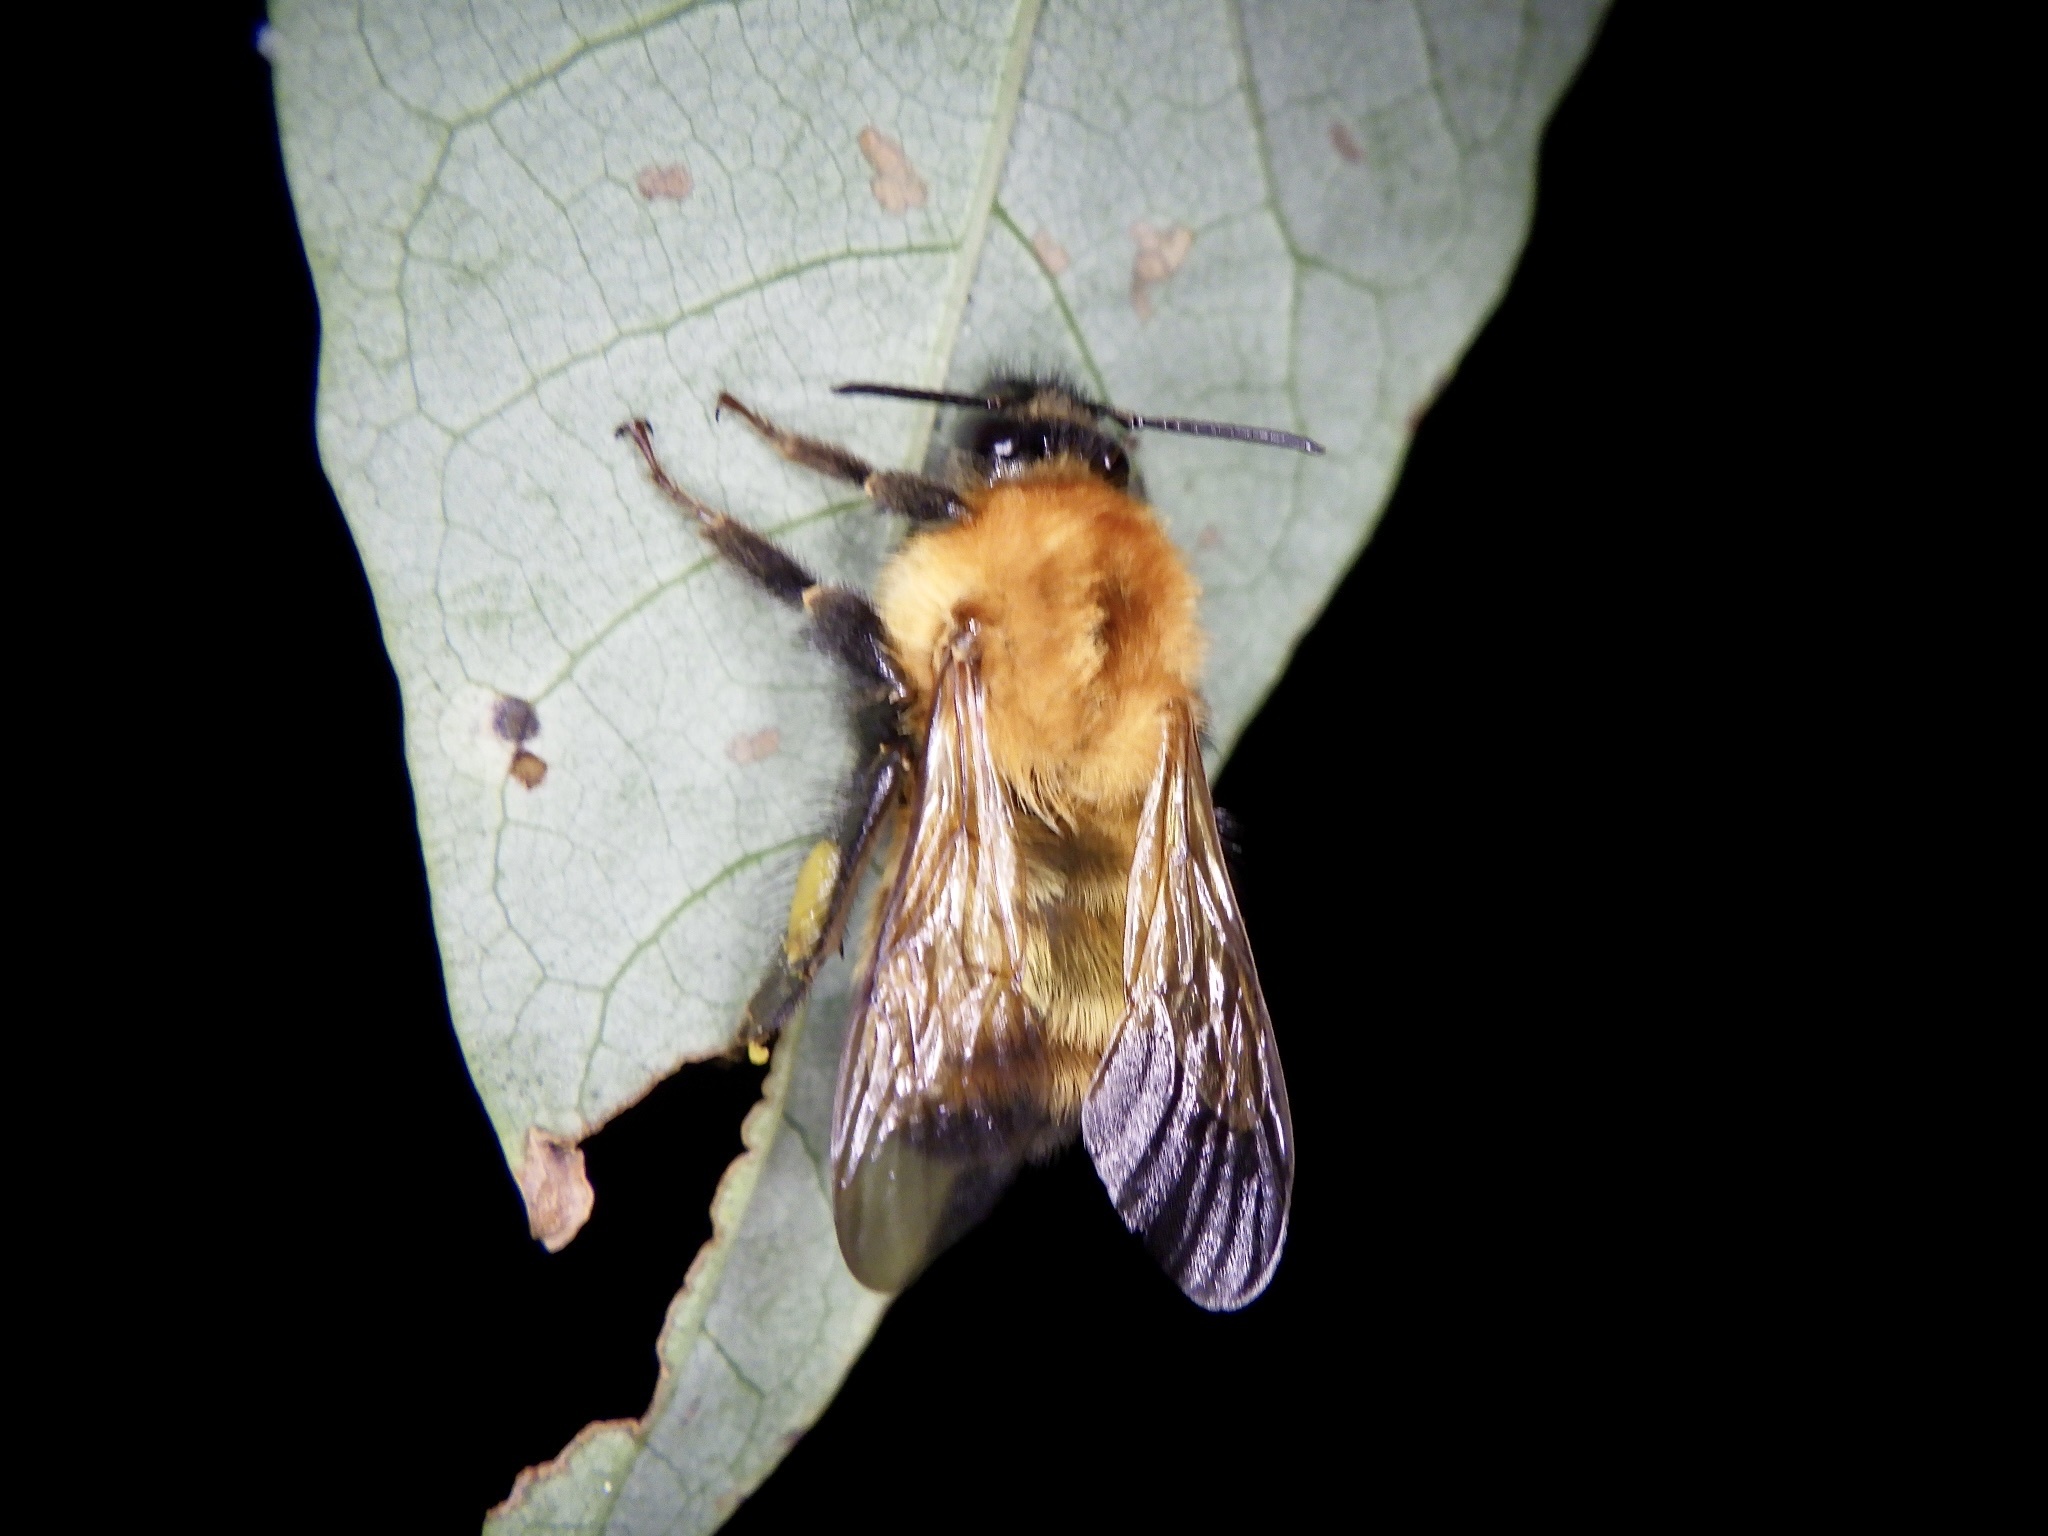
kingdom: Animalia
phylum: Arthropoda
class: Insecta
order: Hymenoptera
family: Apidae
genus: Bombus
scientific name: Bombus diversus
